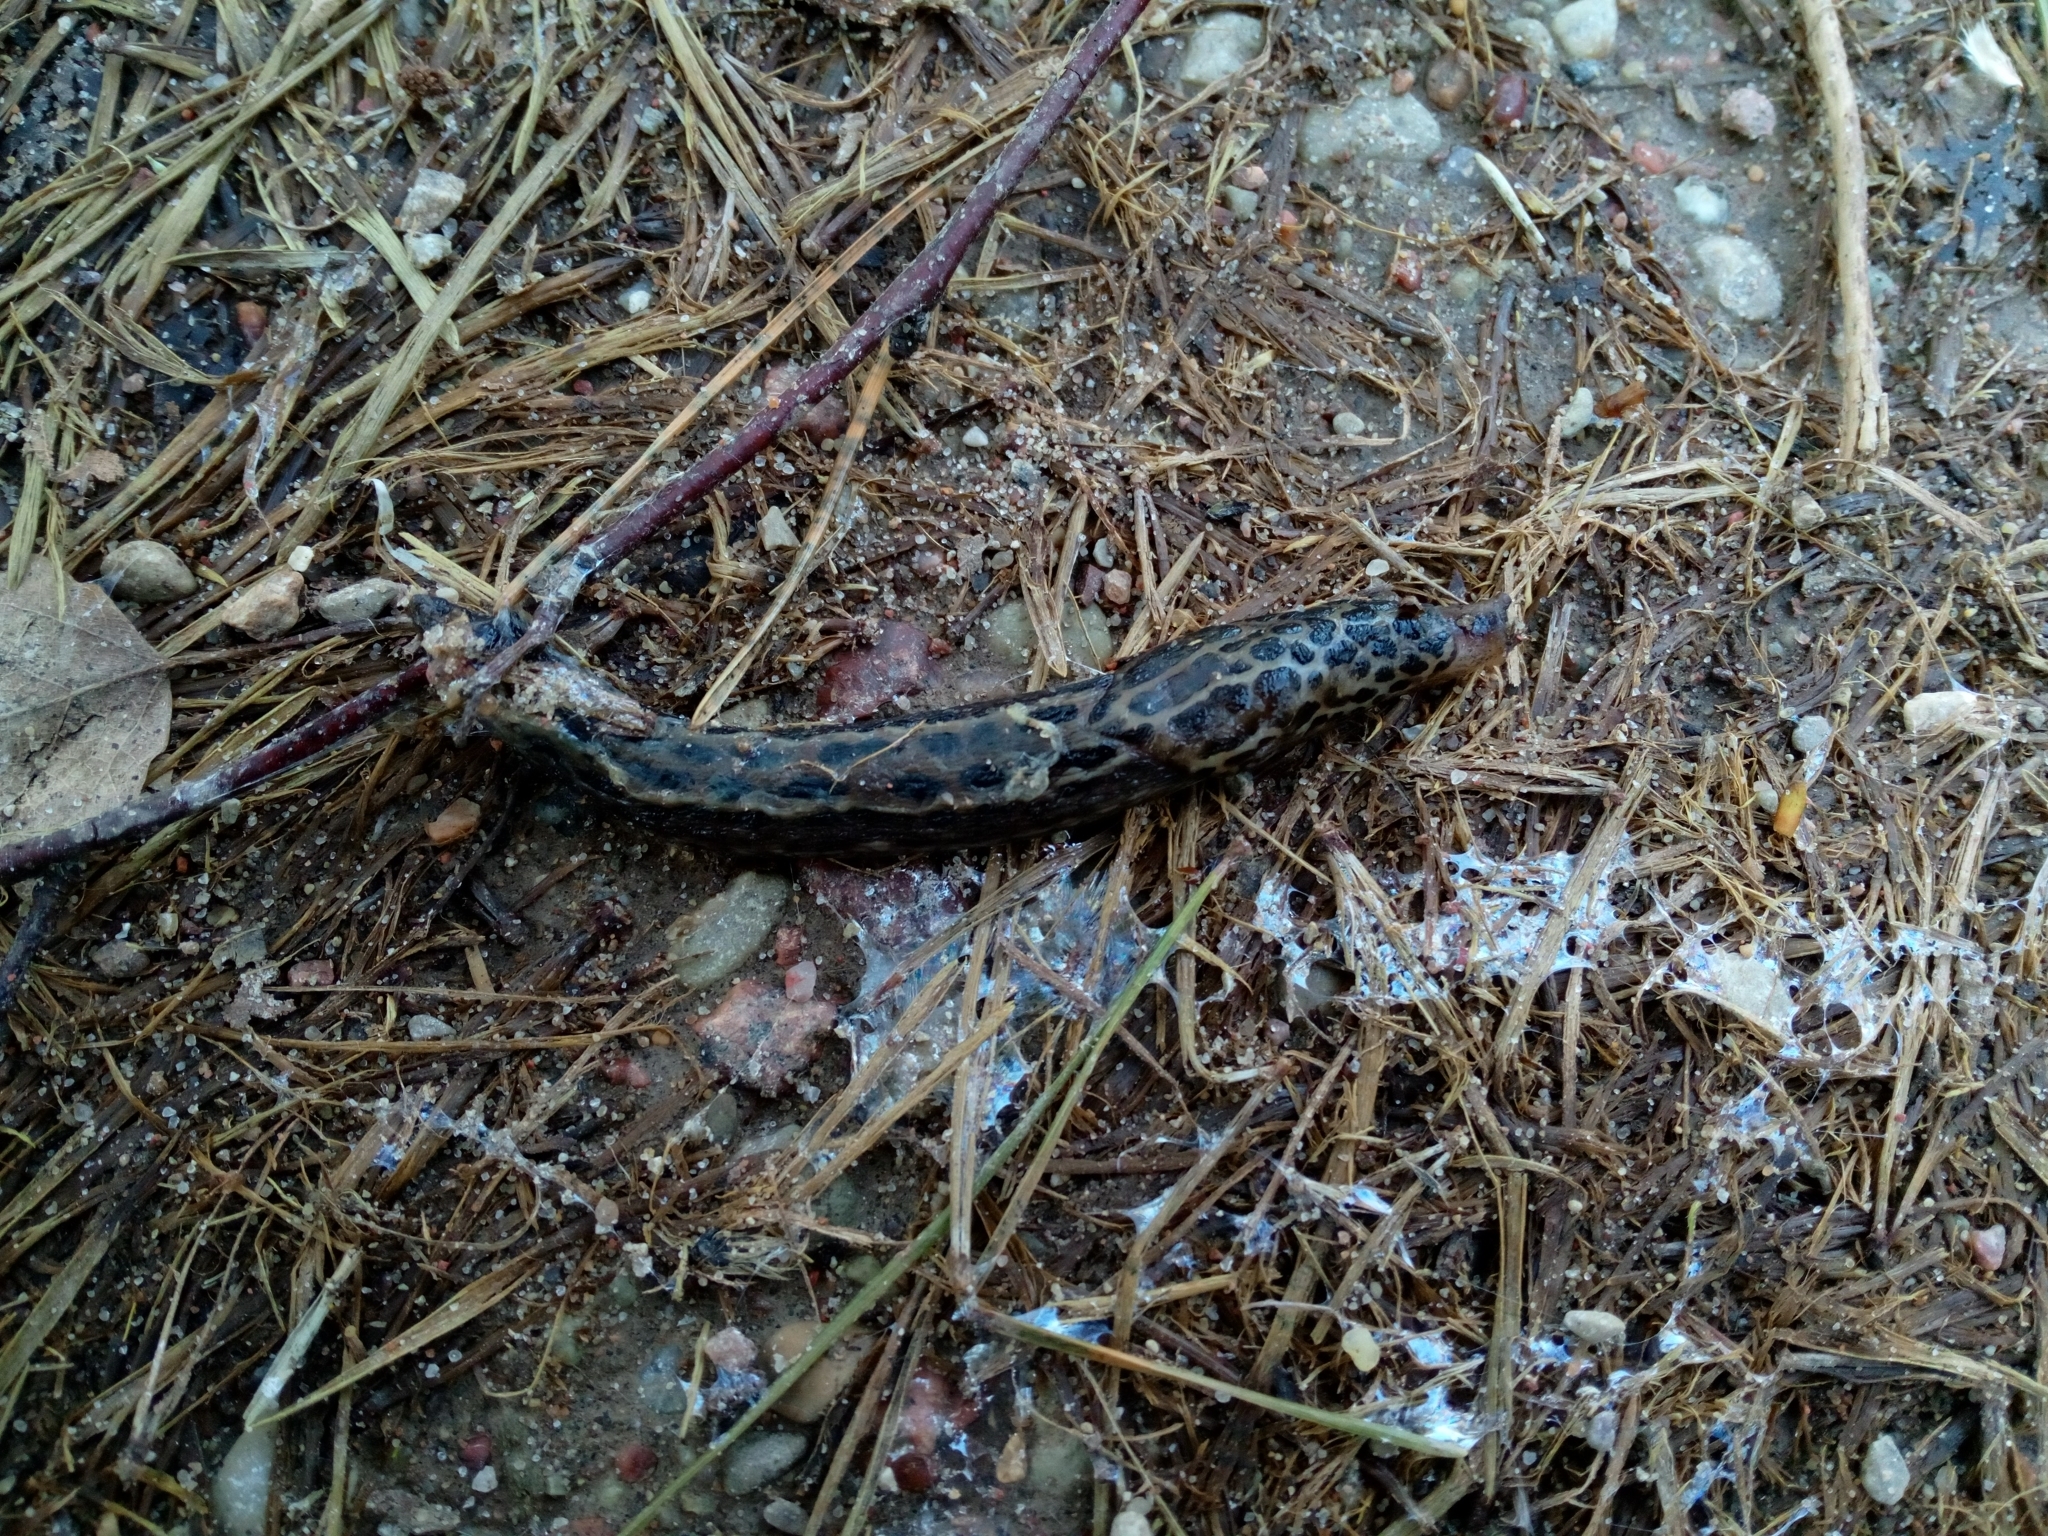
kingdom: Animalia
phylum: Mollusca
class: Gastropoda
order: Stylommatophora
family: Limacidae
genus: Limax
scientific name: Limax maximus
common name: Great grey slug
